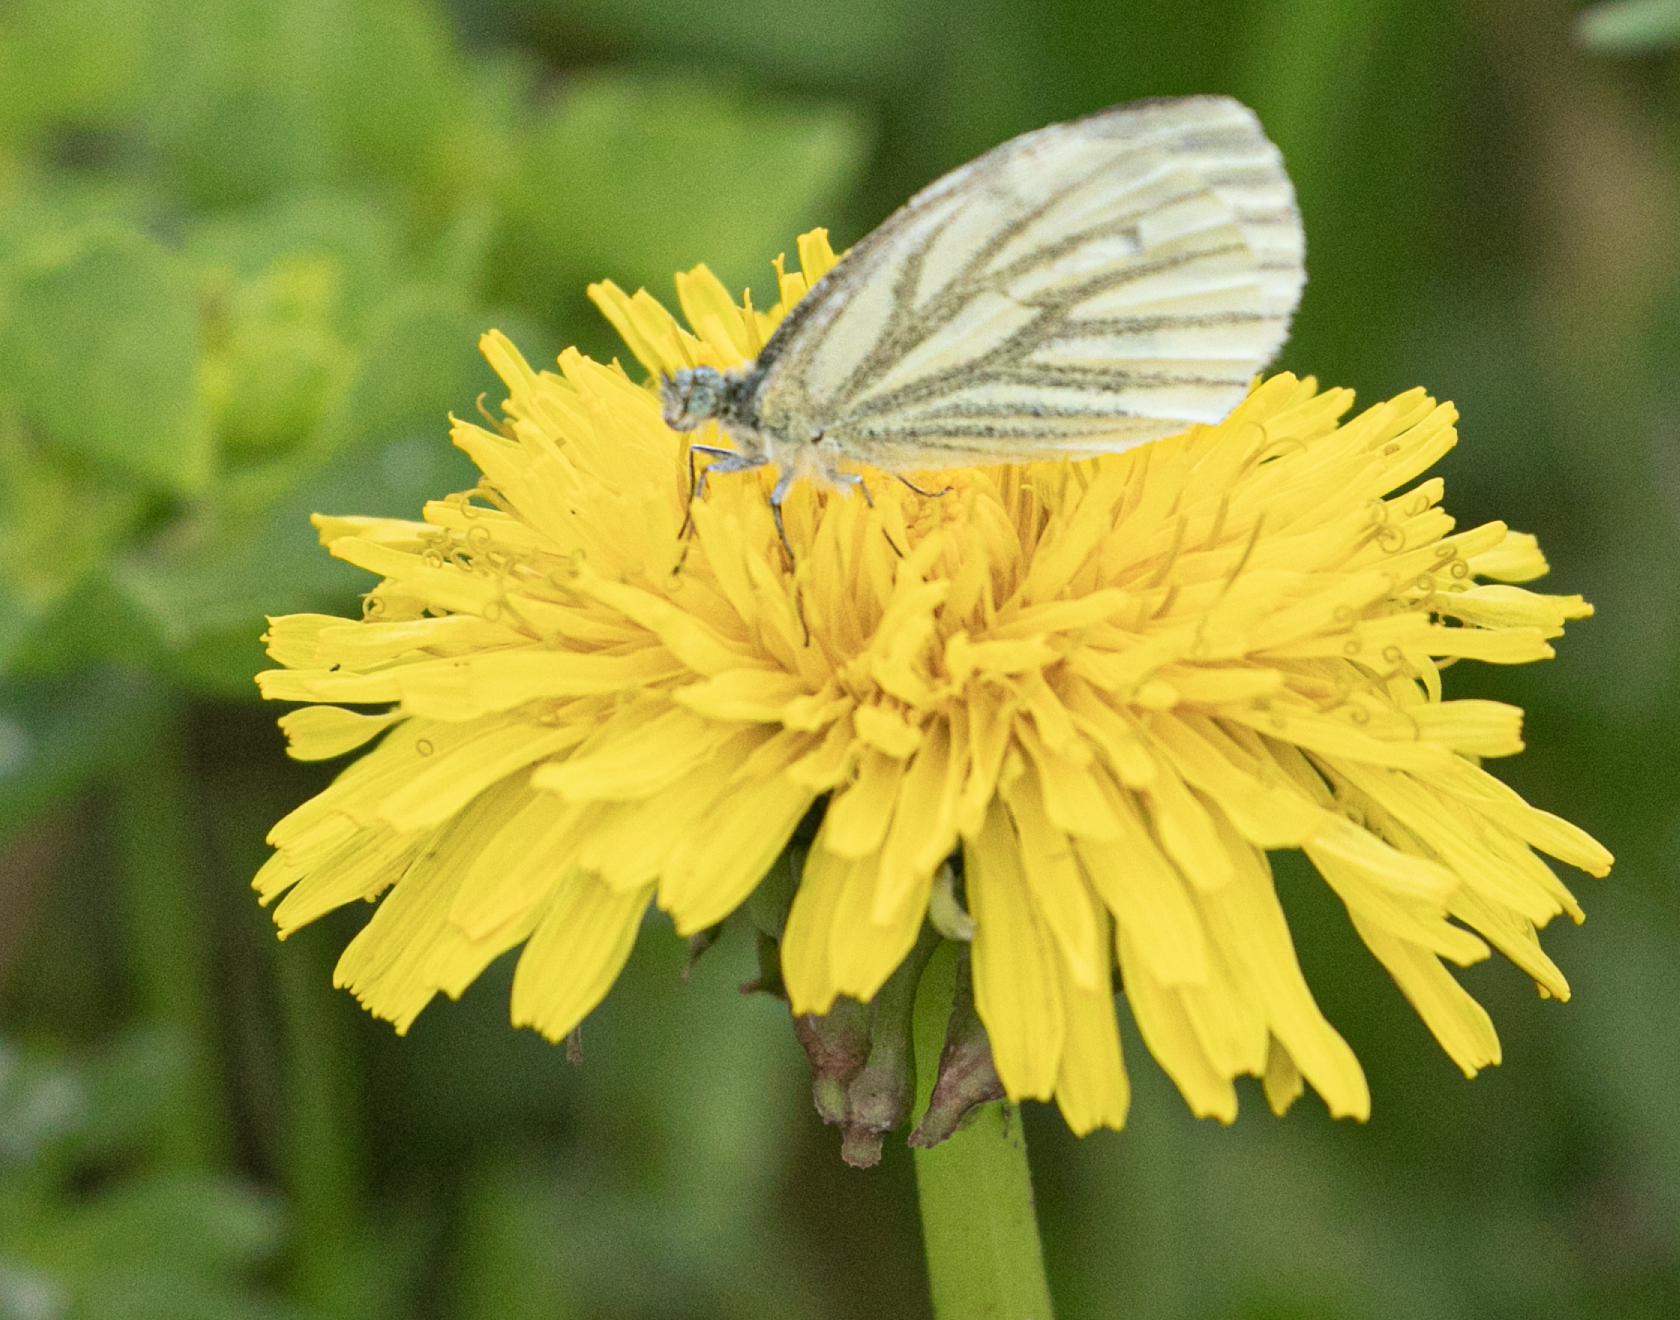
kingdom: Animalia
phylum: Arthropoda
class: Insecta
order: Lepidoptera
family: Pieridae
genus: Pieris
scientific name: Pieris napi
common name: Green-veined white
